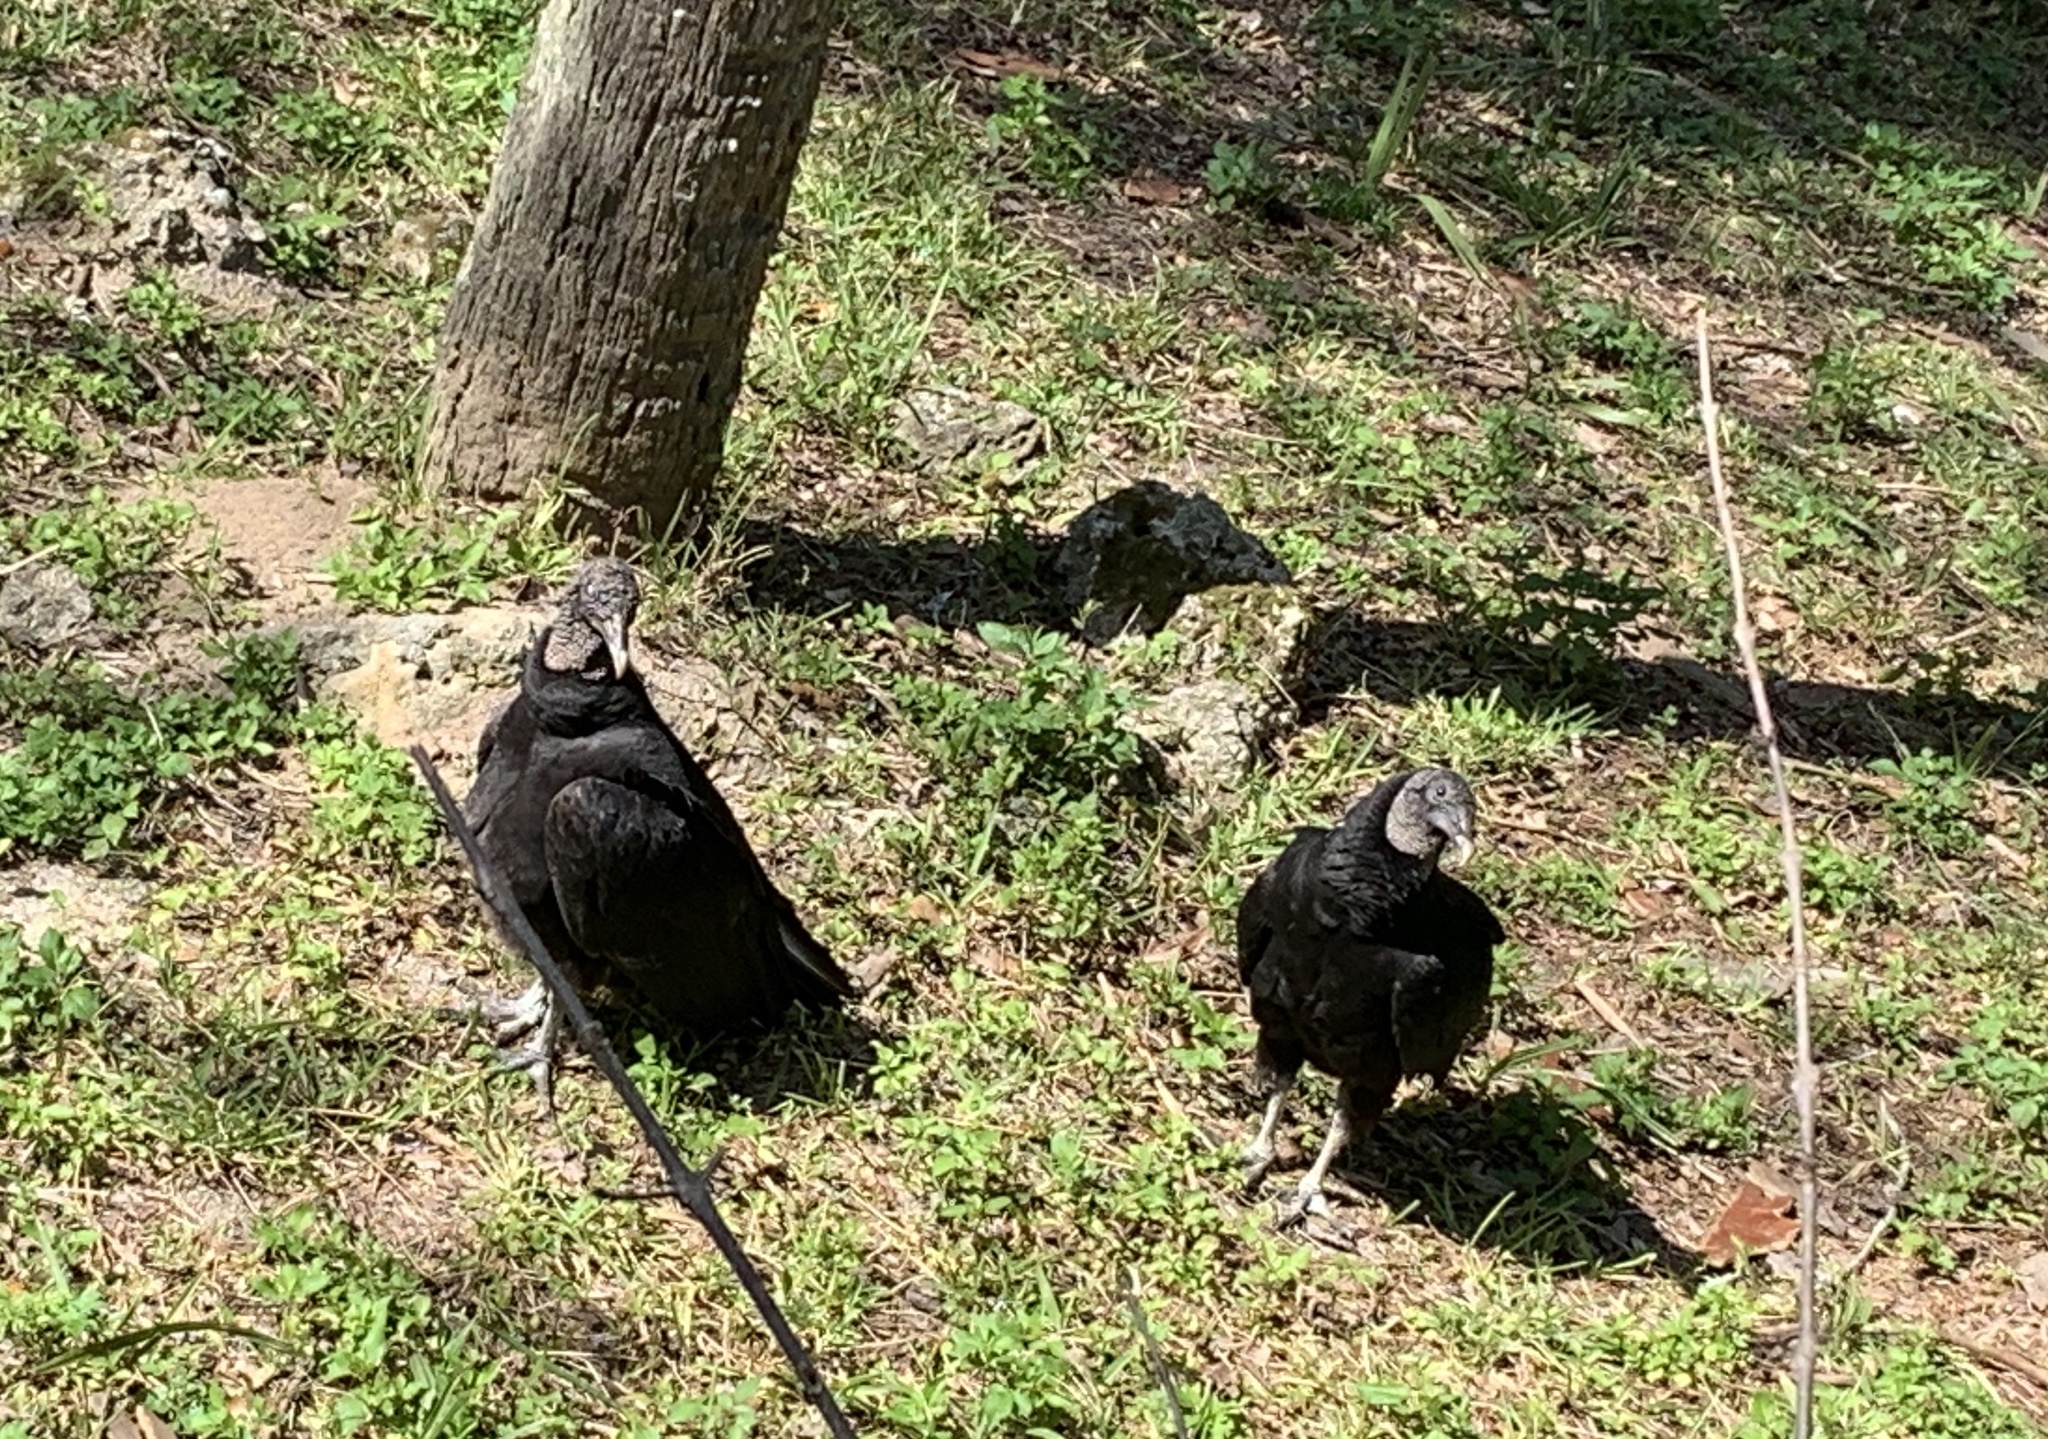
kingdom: Animalia
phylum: Chordata
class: Aves
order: Accipitriformes
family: Cathartidae
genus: Coragyps
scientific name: Coragyps atratus
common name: Black vulture
